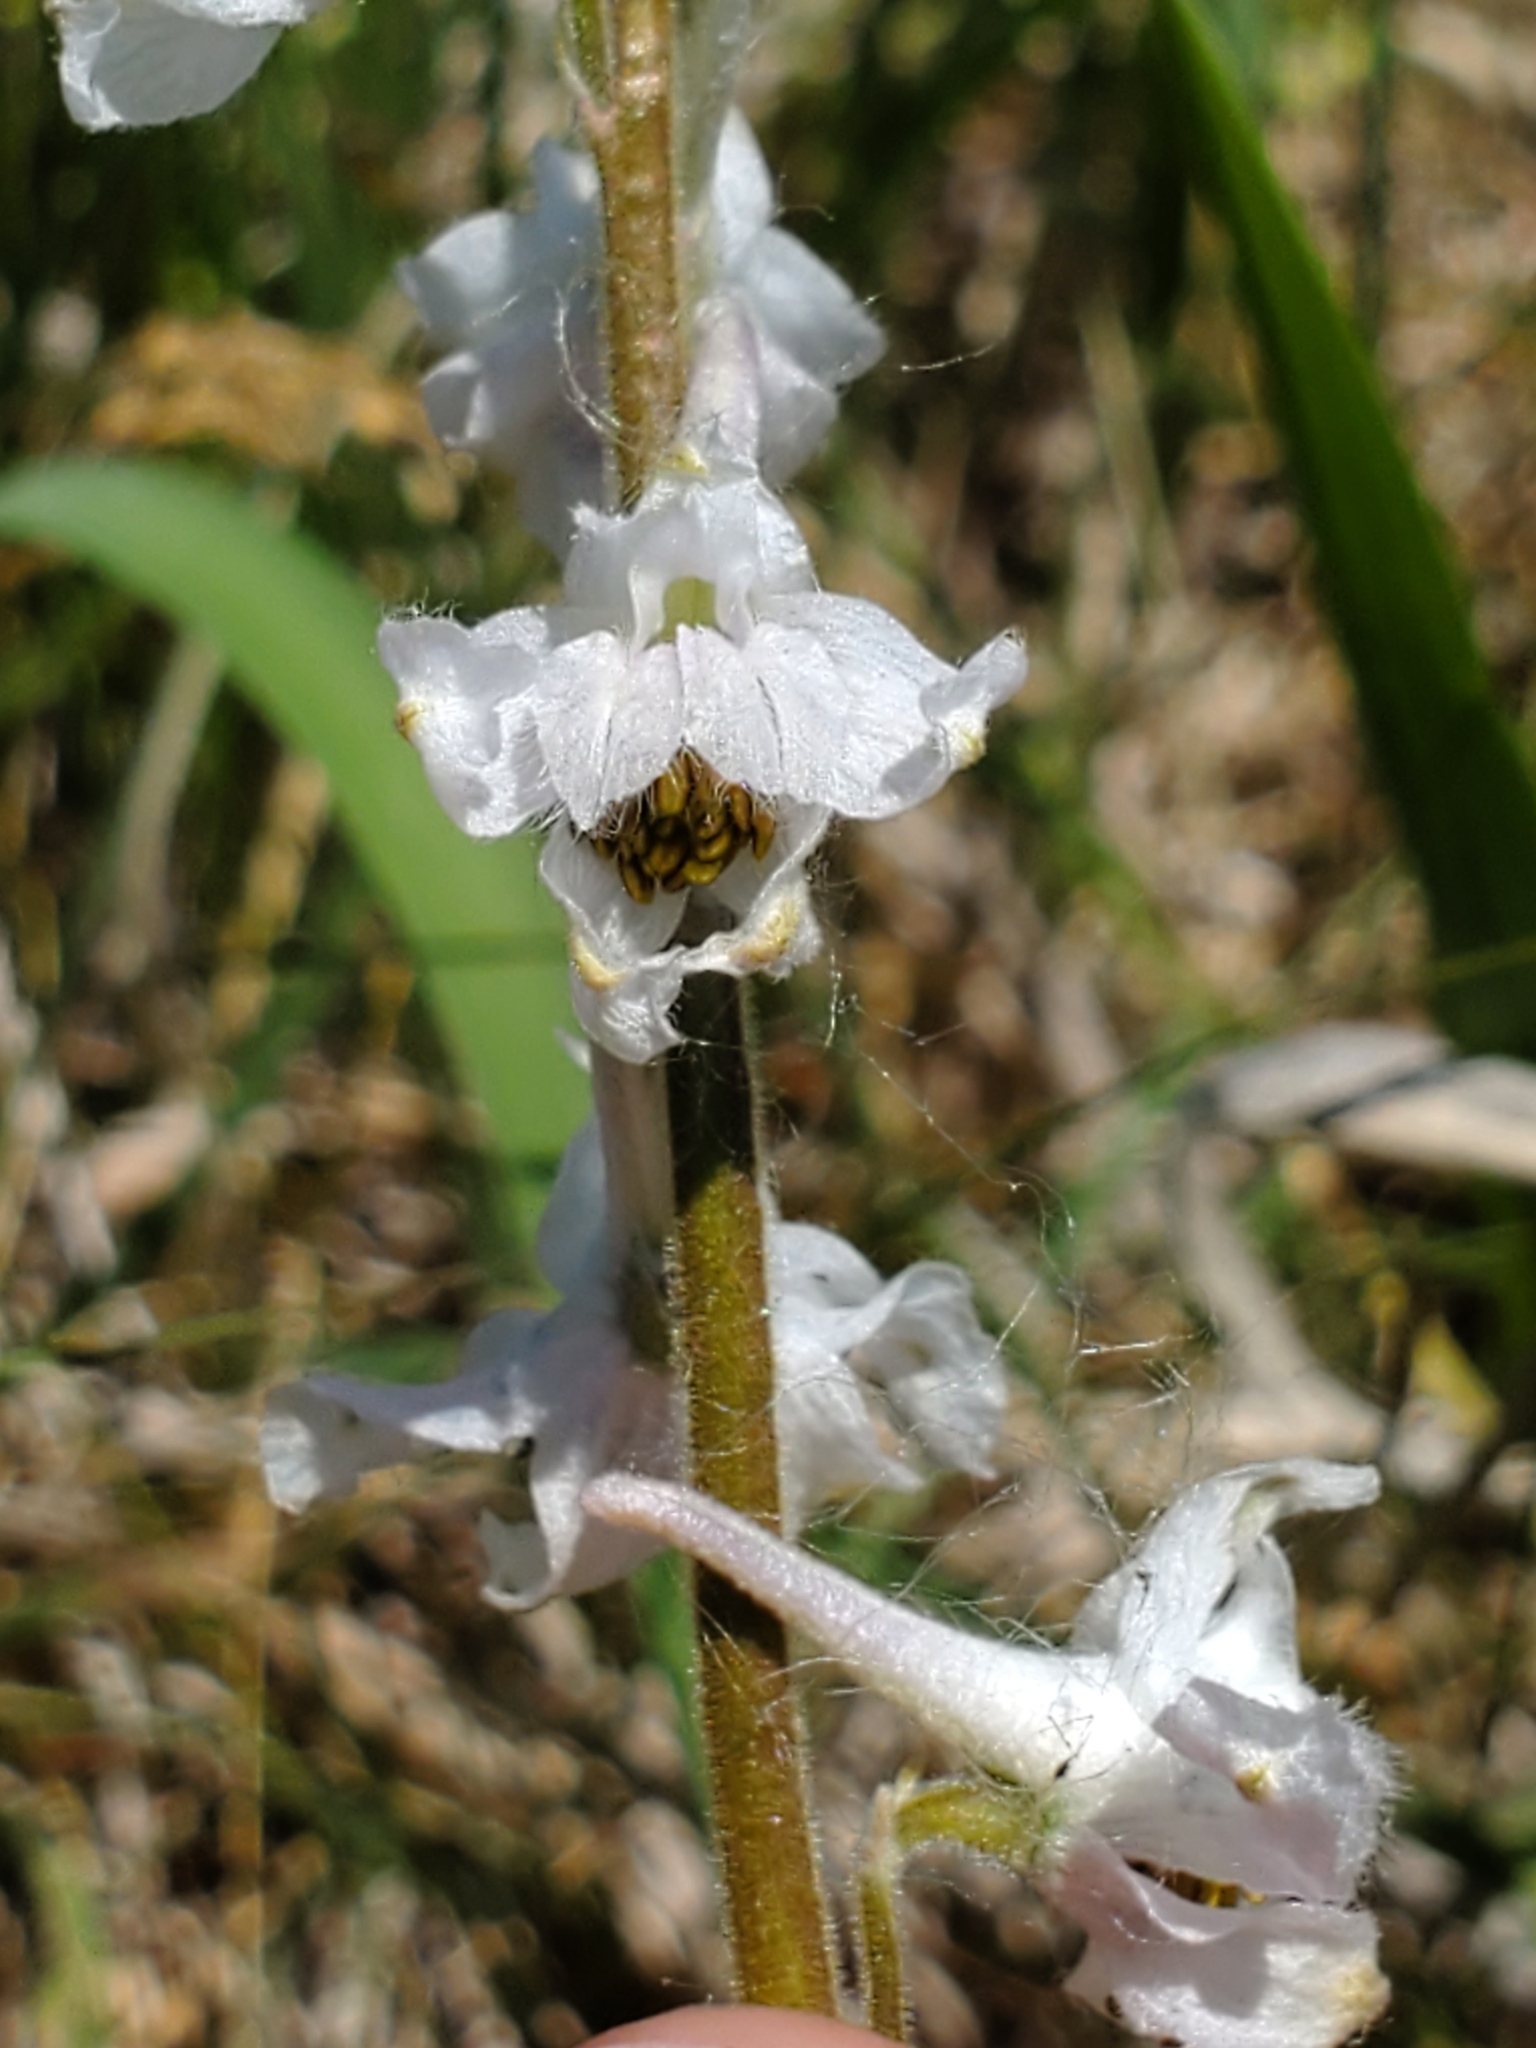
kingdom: Plantae
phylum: Tracheophyta
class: Magnoliopsida
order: Ranunculales
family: Ranunculaceae
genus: Delphinium
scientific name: Delphinium carolinianum
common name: Carolina larkspur
